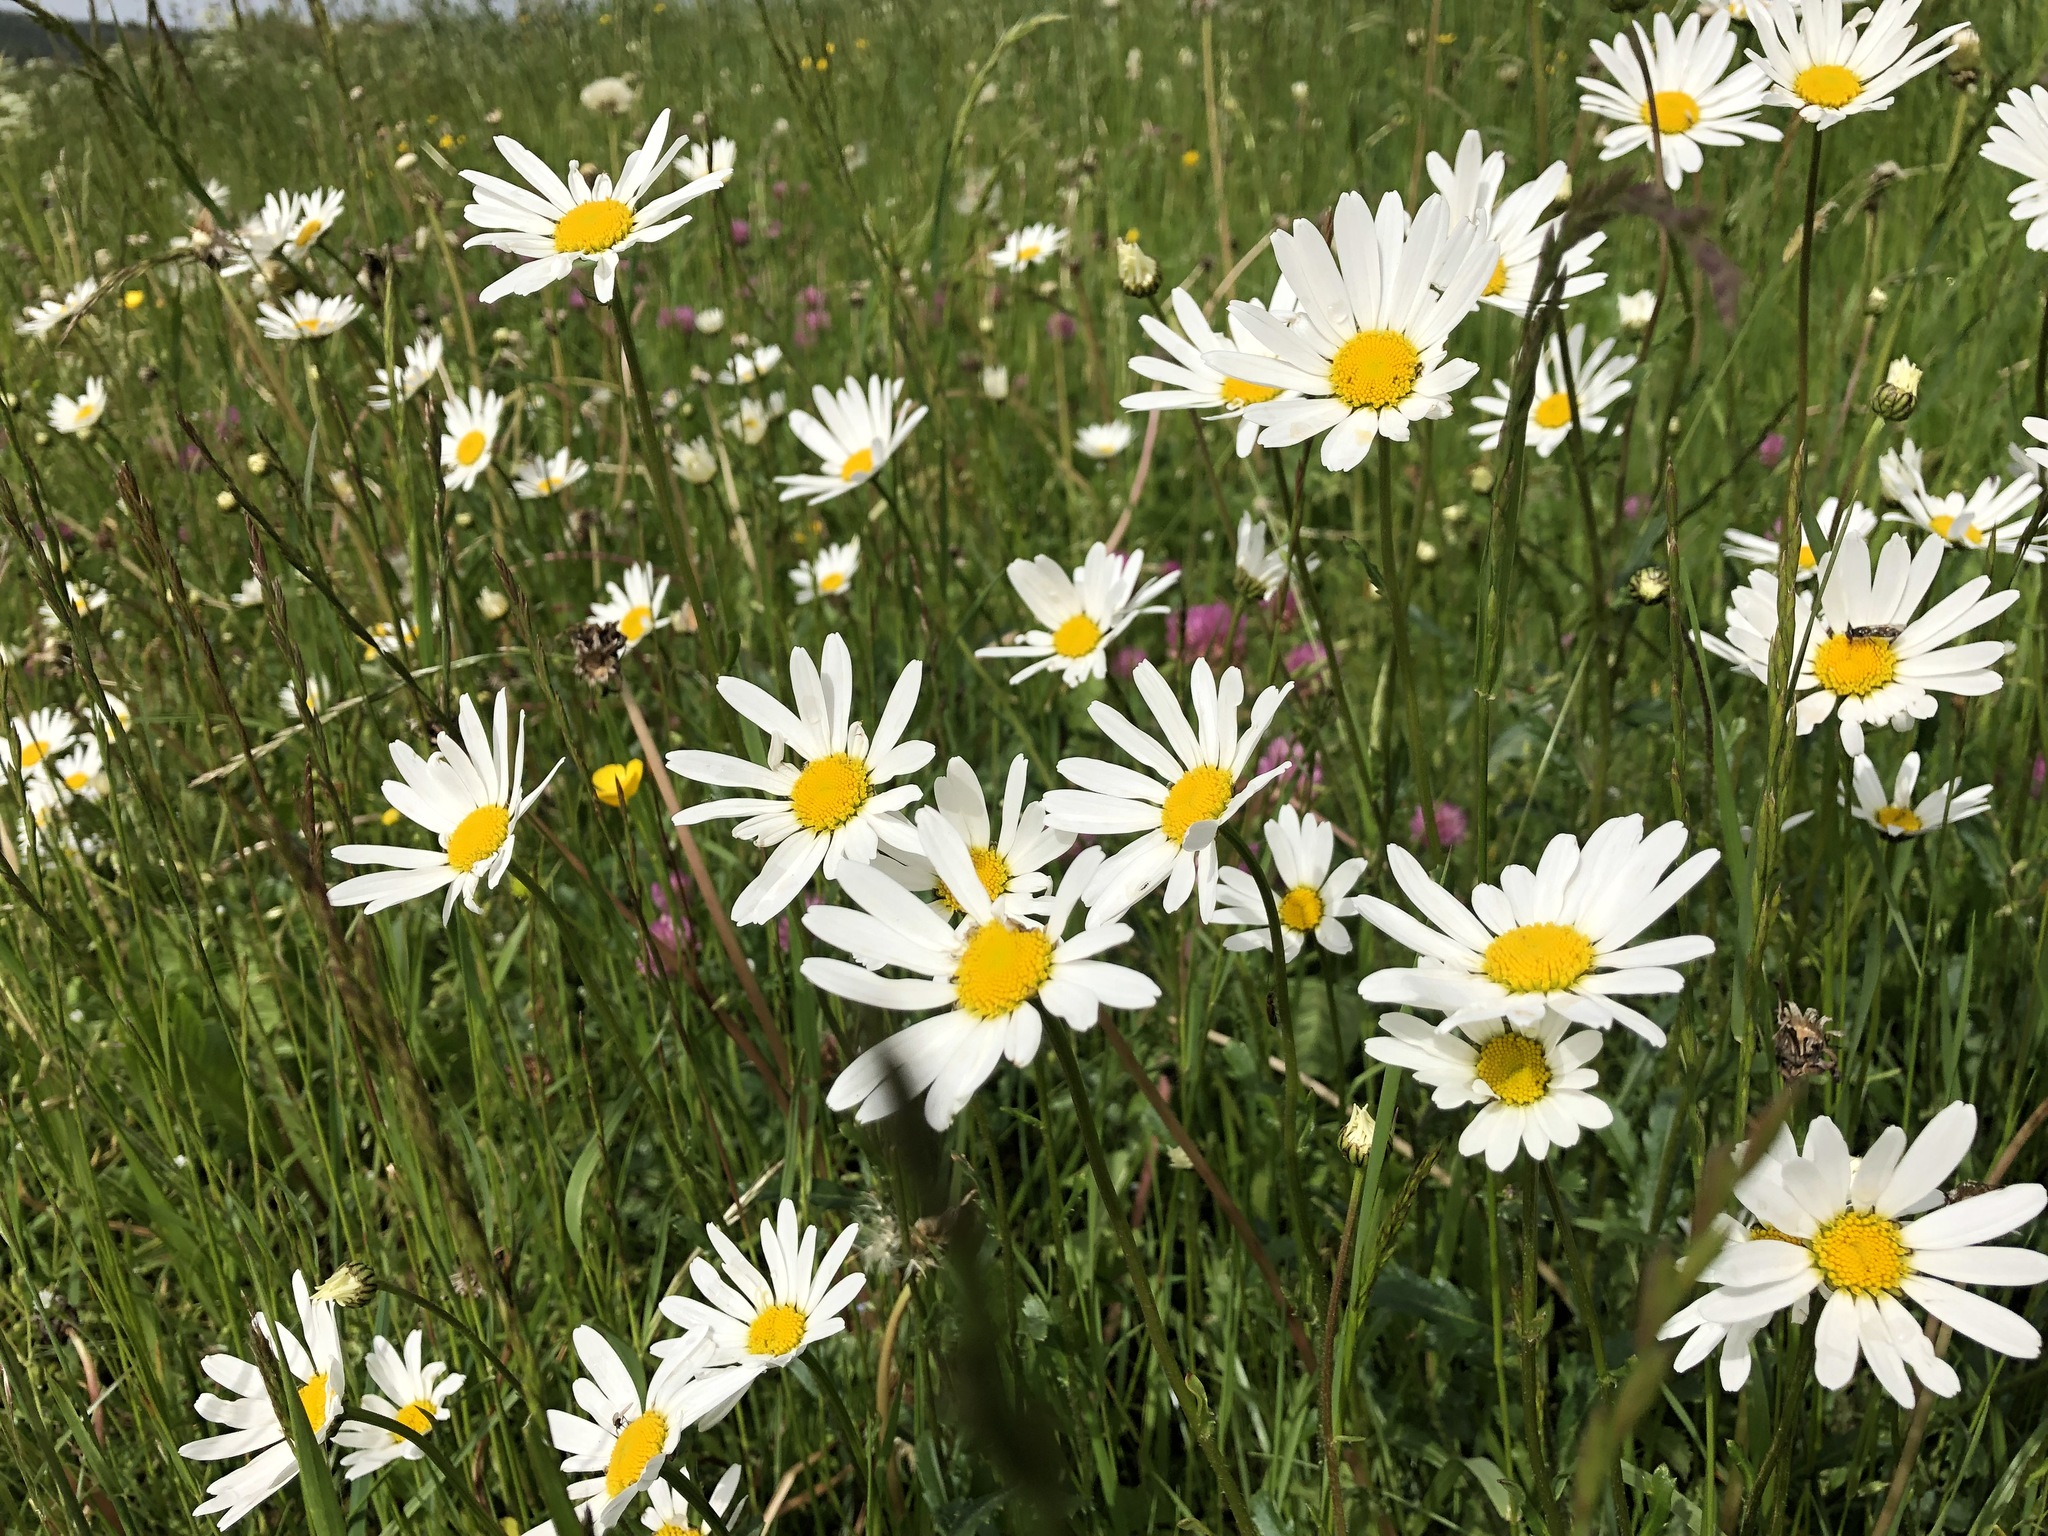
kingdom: Plantae
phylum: Tracheophyta
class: Magnoliopsida
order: Asterales
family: Asteraceae
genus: Leucanthemum
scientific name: Leucanthemum vulgare
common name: Oxeye daisy
